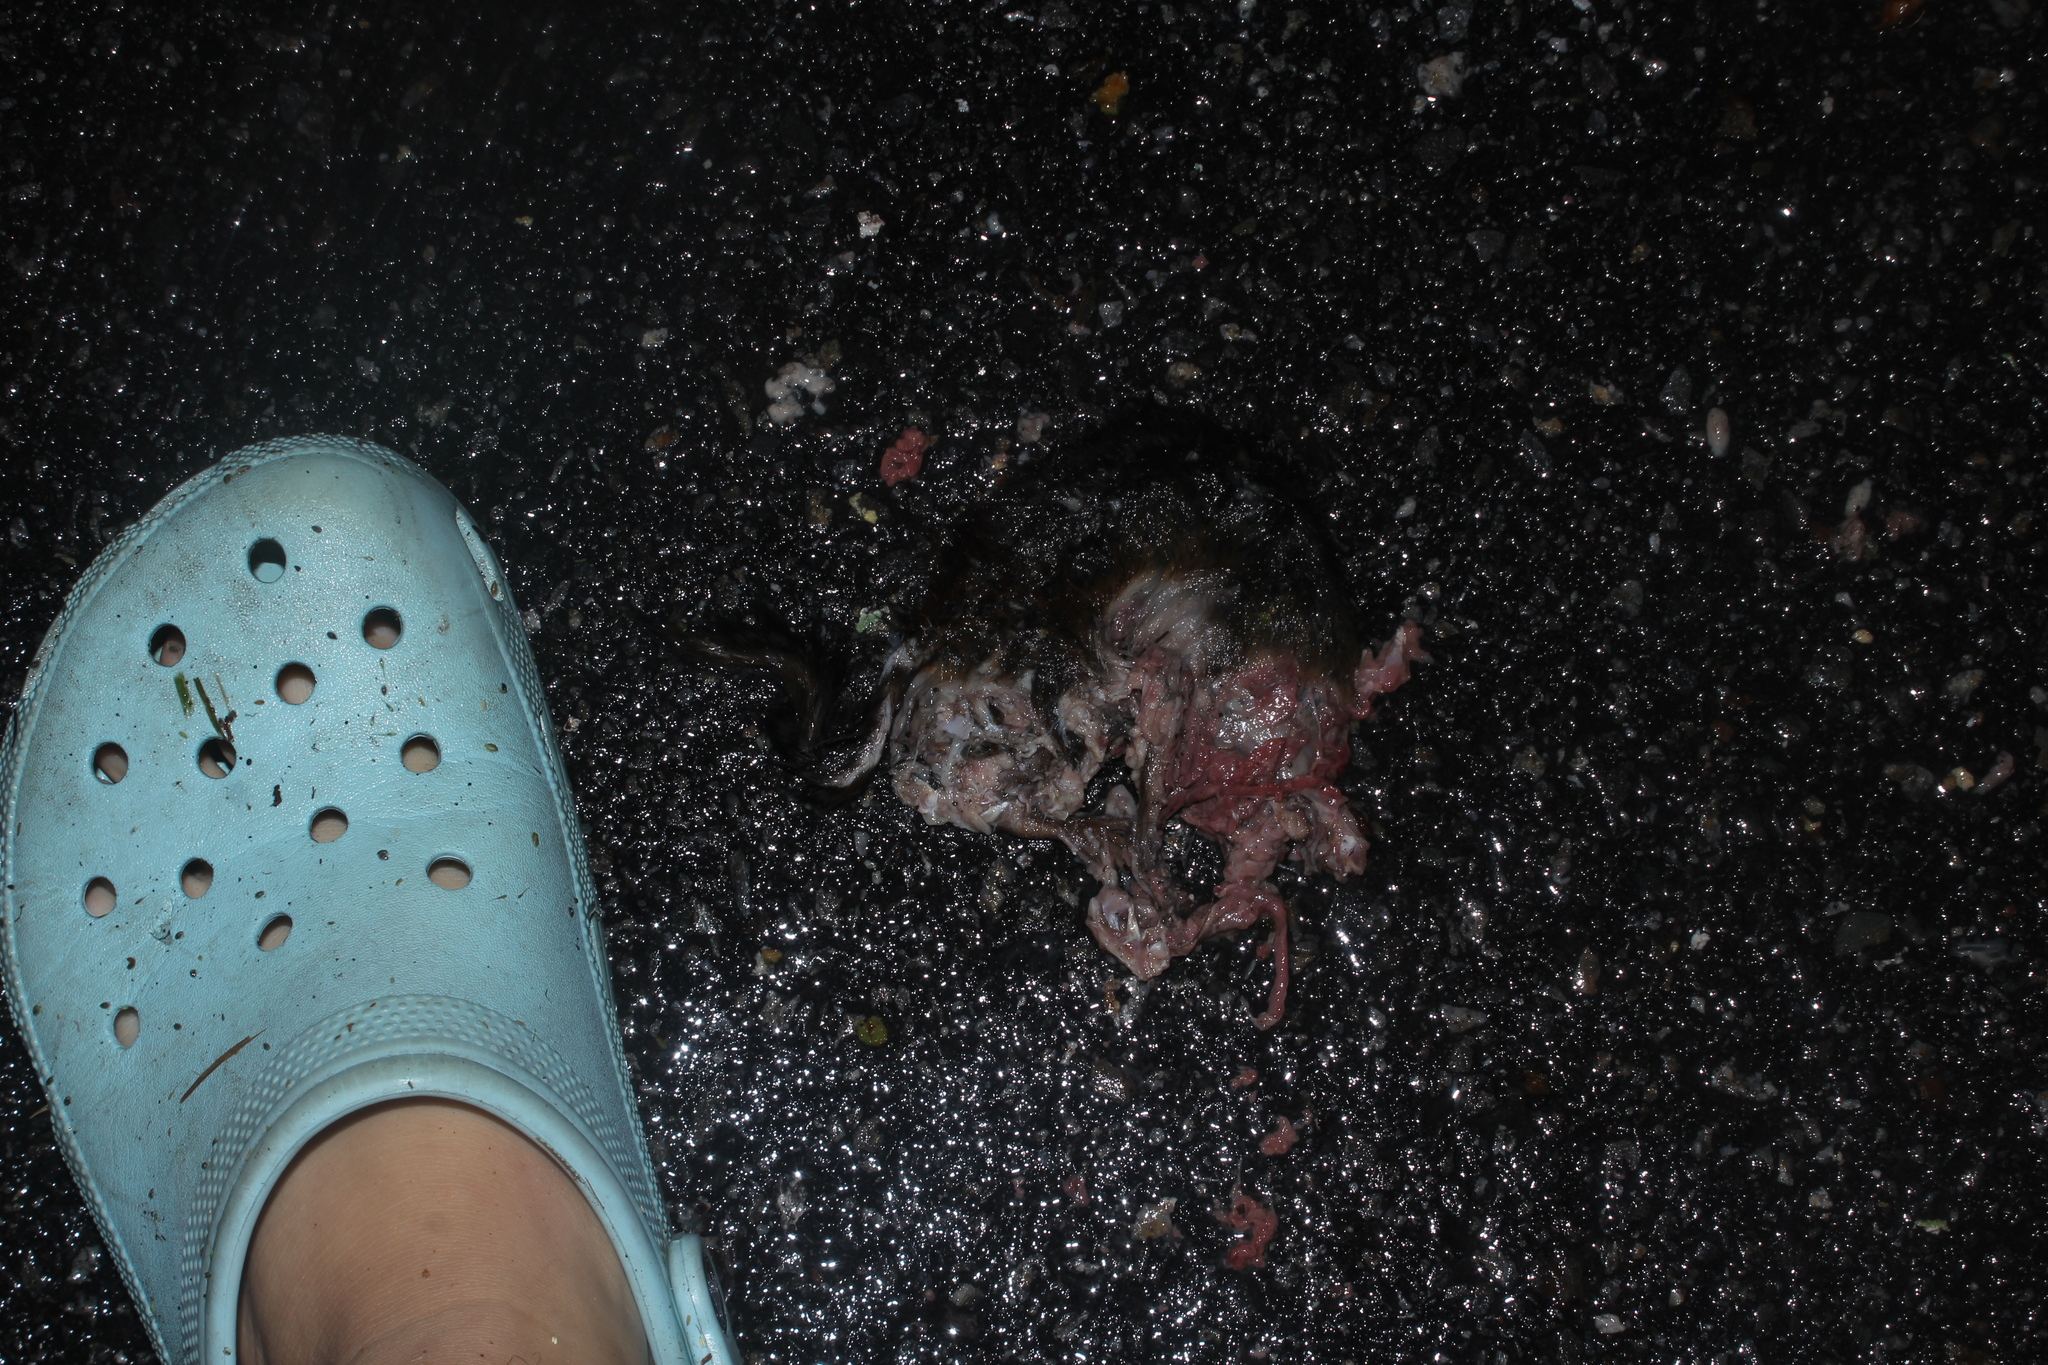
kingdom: Animalia
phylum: Chordata
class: Mammalia
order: Rodentia
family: Sciuridae
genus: Tamias
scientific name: Tamias striatus
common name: Eastern chipmunk
